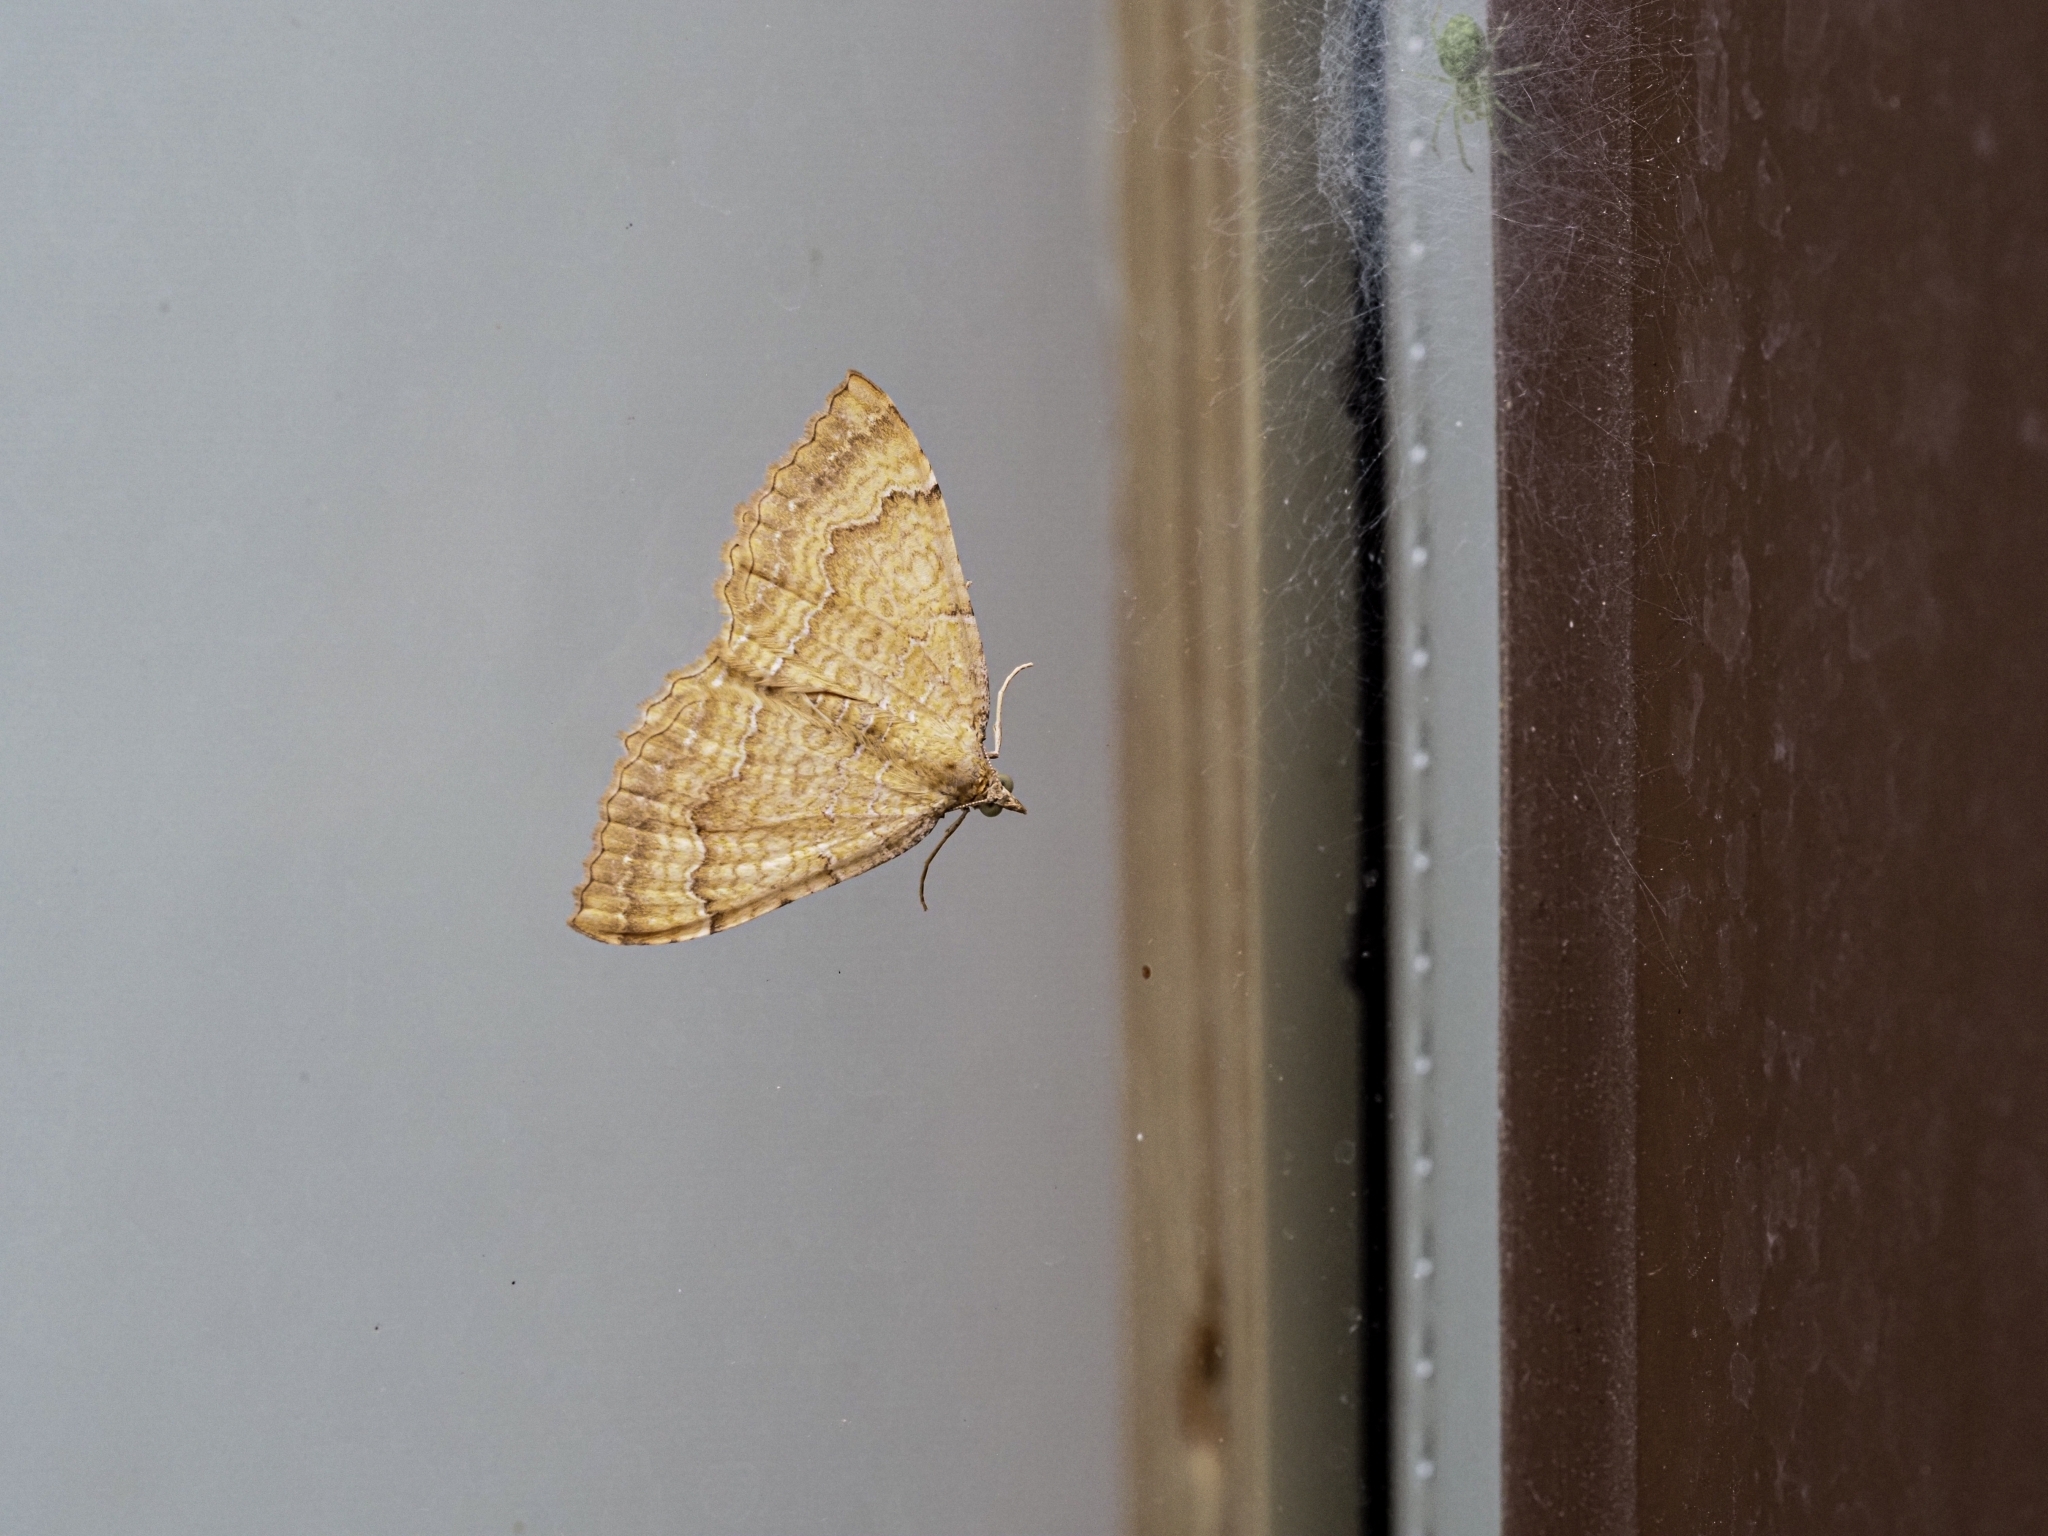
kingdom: Animalia
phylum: Arthropoda
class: Insecta
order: Lepidoptera
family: Geometridae
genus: Camptogramma
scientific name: Camptogramma bilineata
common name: Yellow shell
